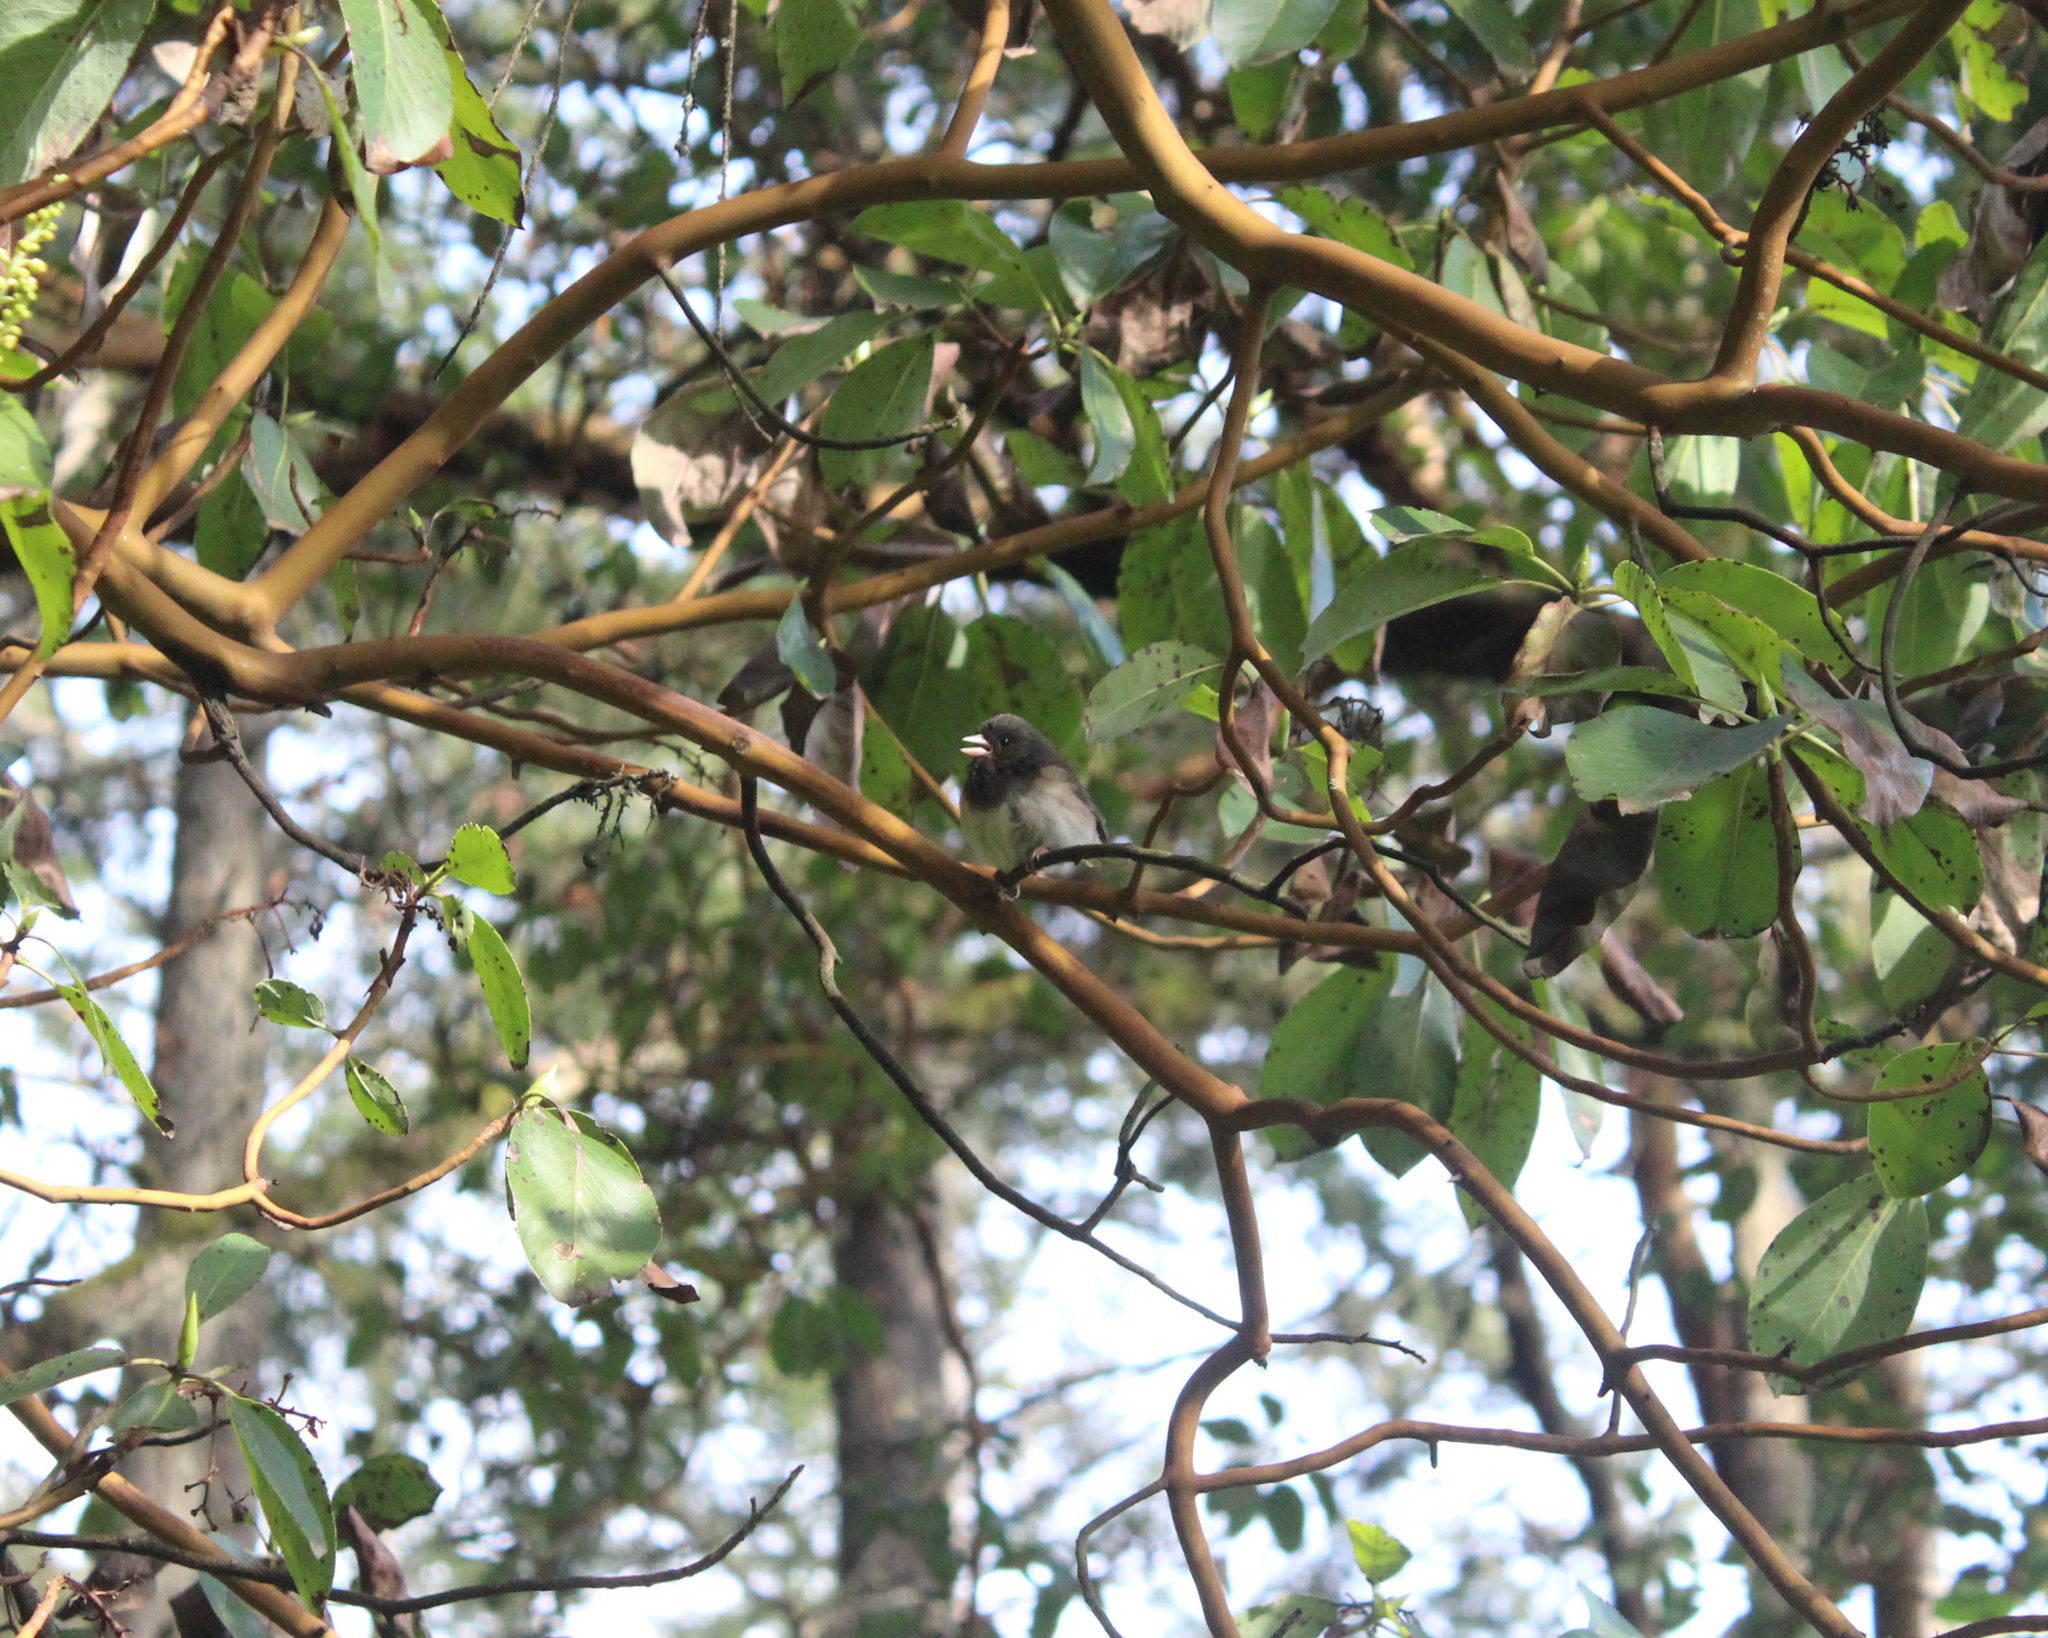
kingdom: Animalia
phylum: Chordata
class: Aves
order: Passeriformes
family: Passerellidae
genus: Junco
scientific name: Junco hyemalis
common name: Dark-eyed junco
